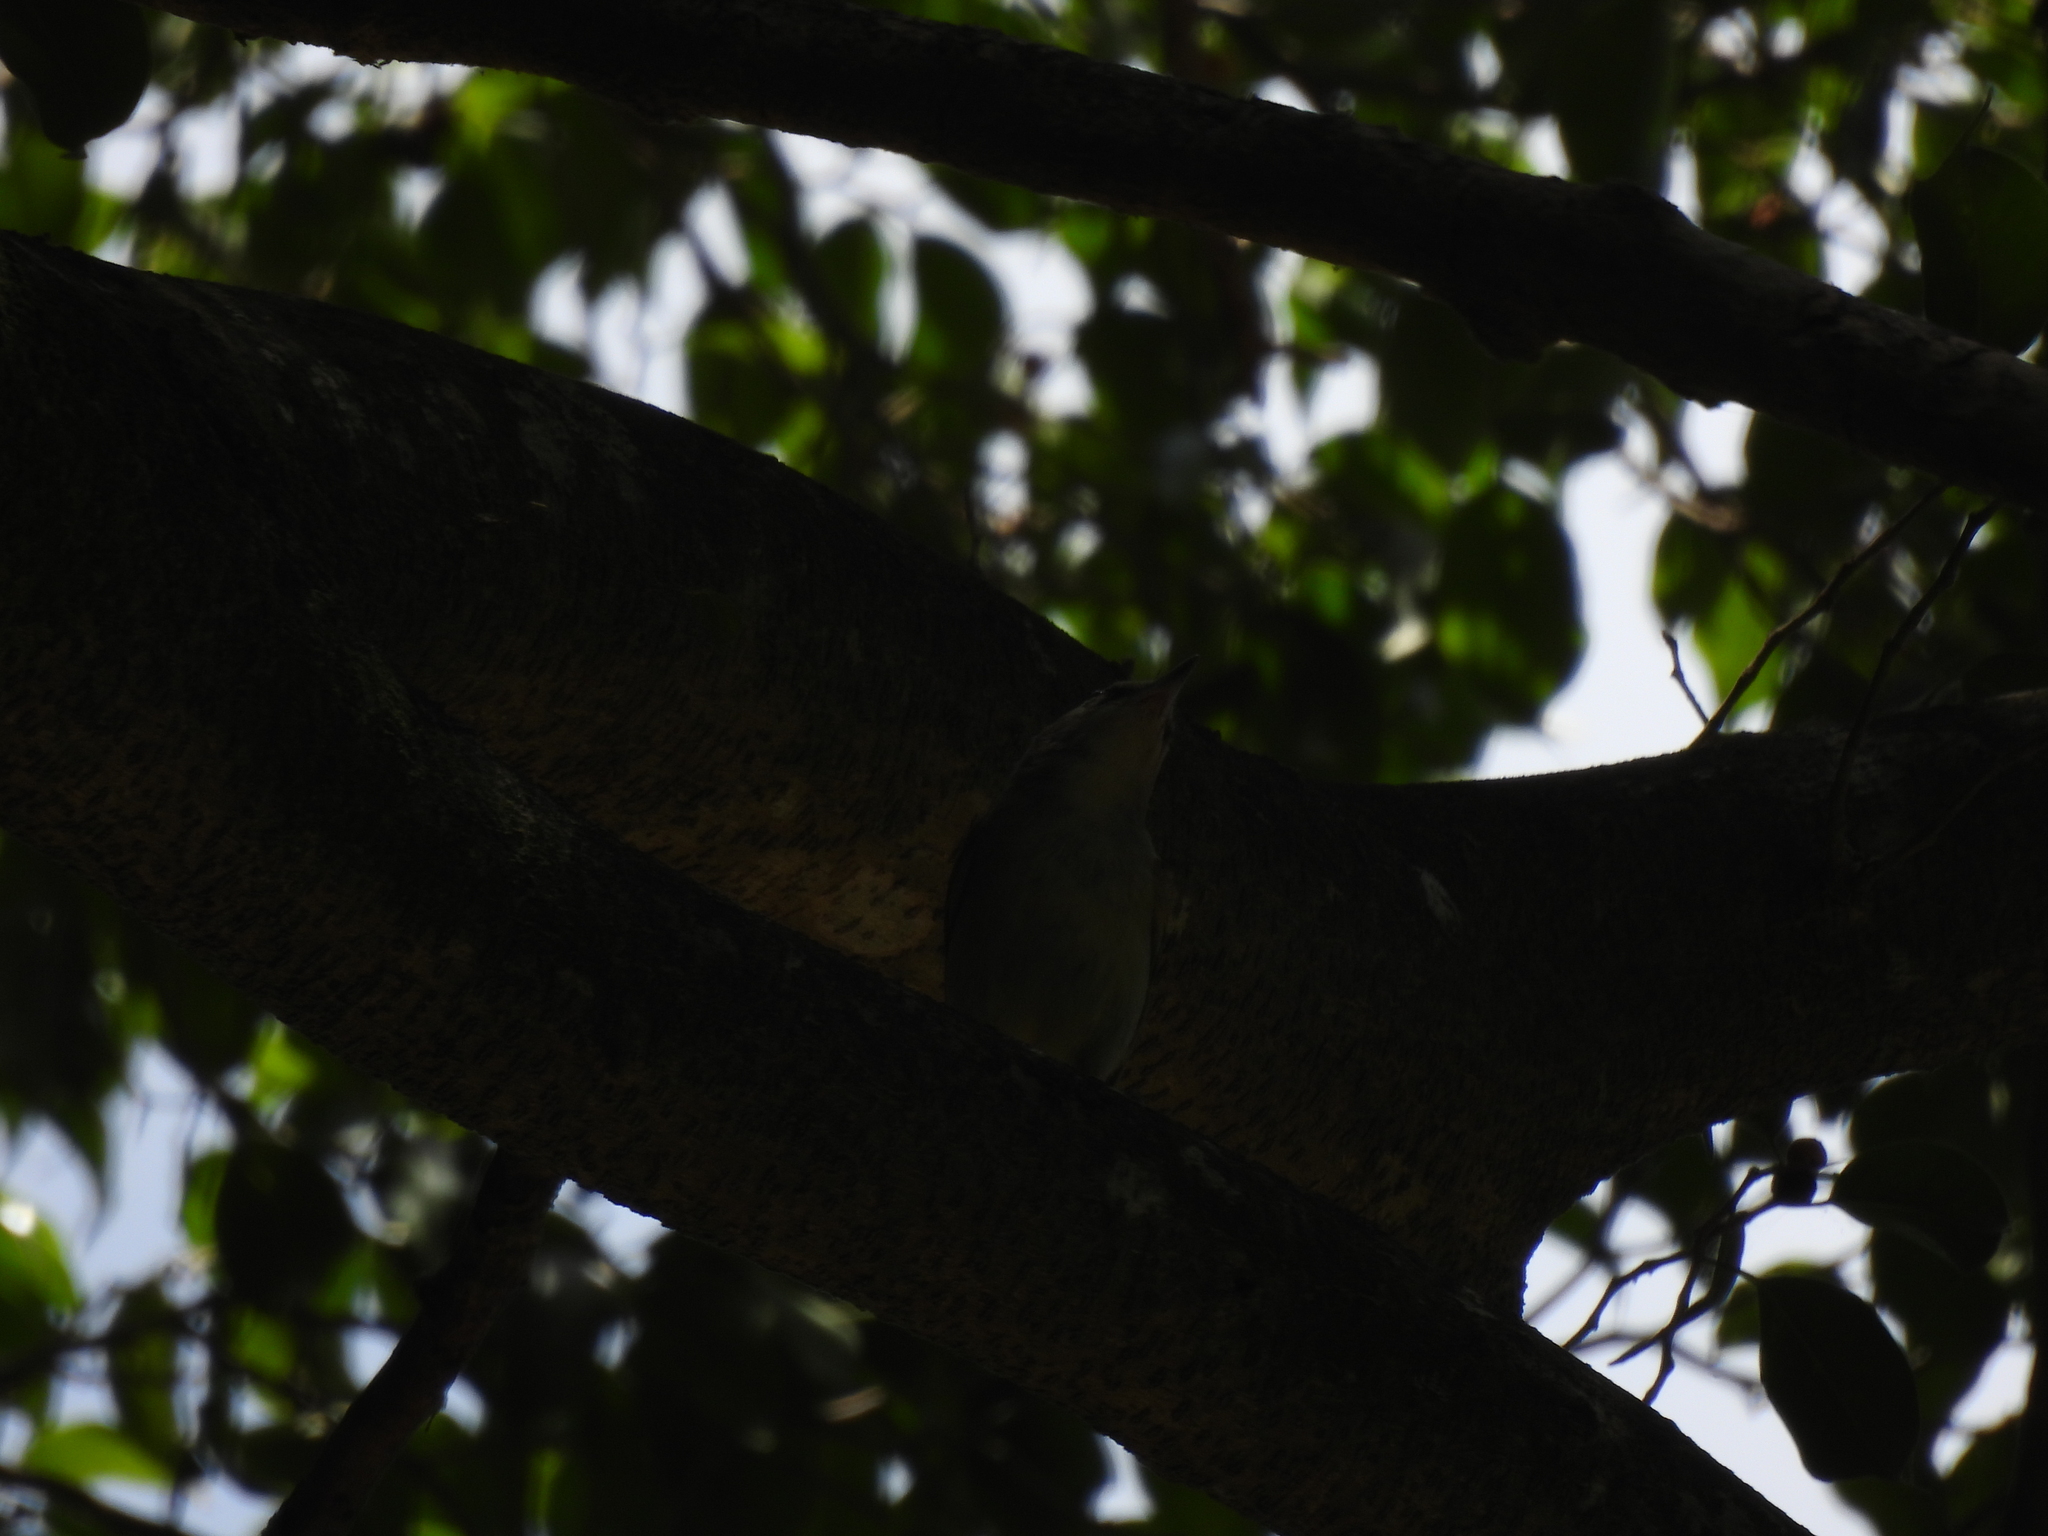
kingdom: Animalia
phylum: Chordata
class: Aves
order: Passeriformes
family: Vireonidae
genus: Vireo
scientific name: Vireo magister
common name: Yucatan vireo
